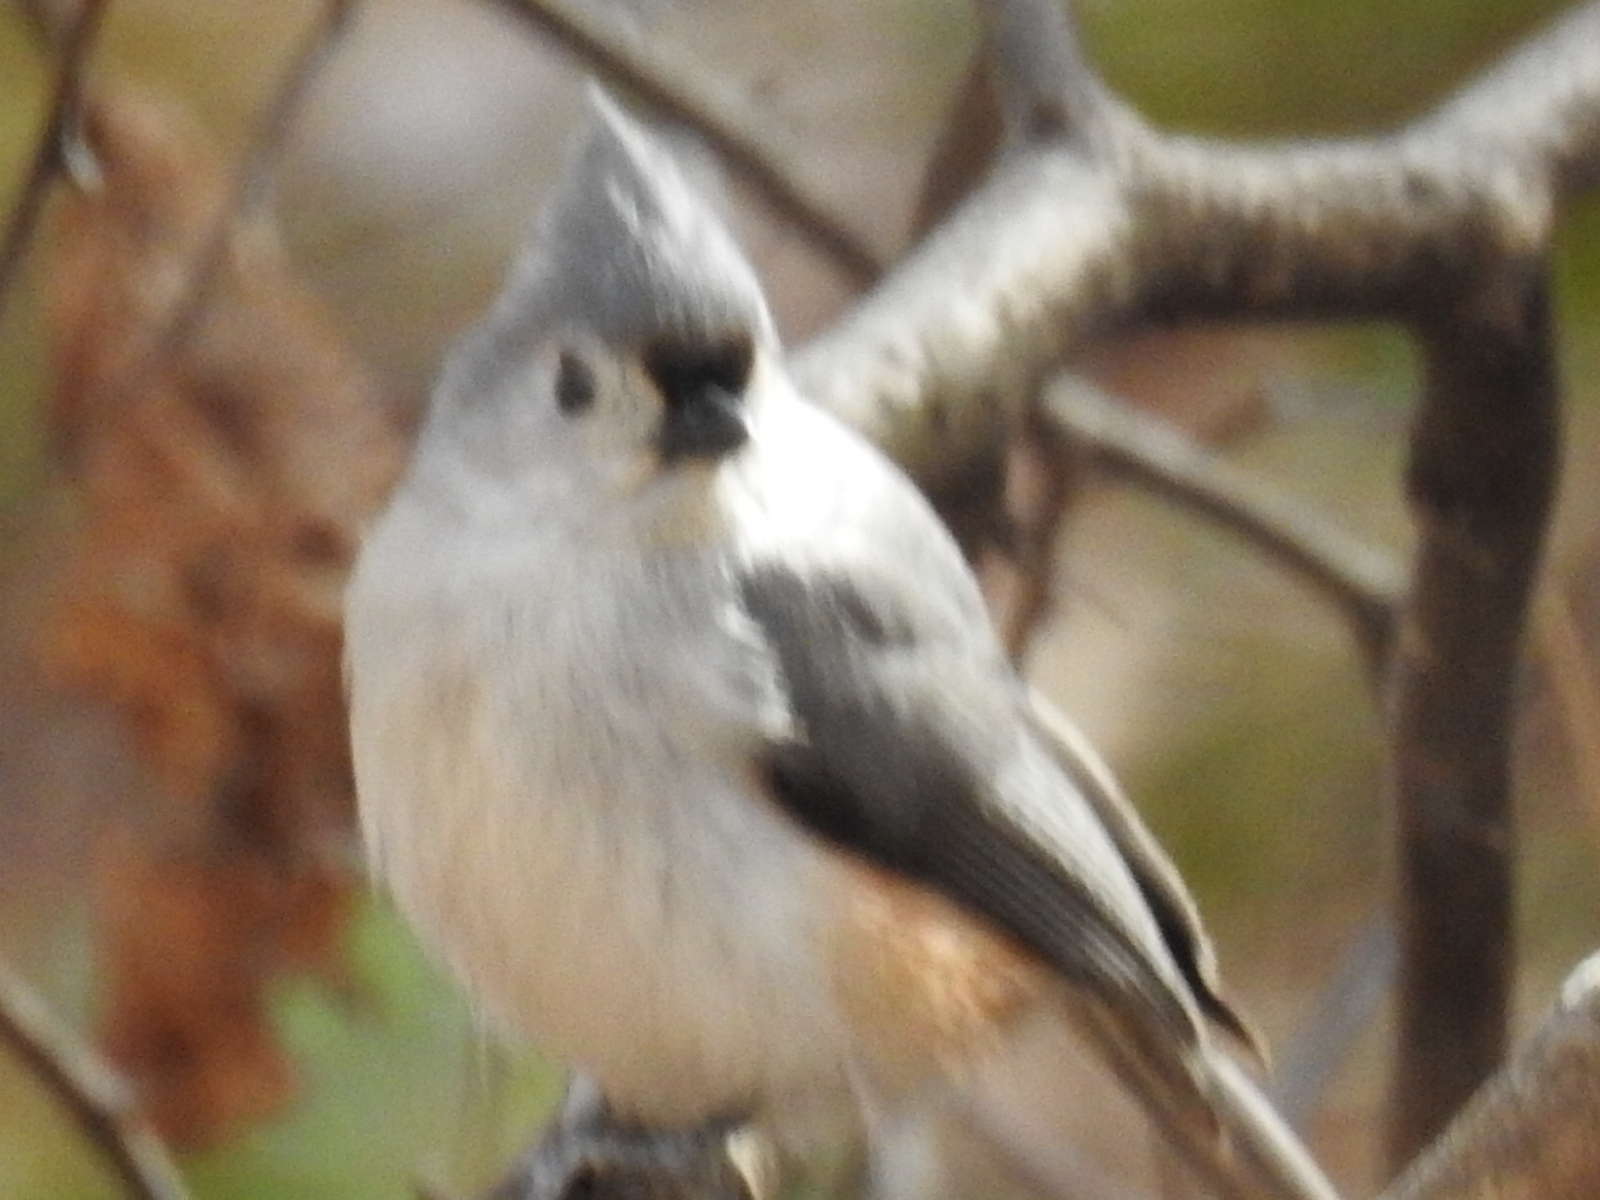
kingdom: Animalia
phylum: Chordata
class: Aves
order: Passeriformes
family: Paridae
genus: Baeolophus
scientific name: Baeolophus bicolor
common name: Tufted titmouse
